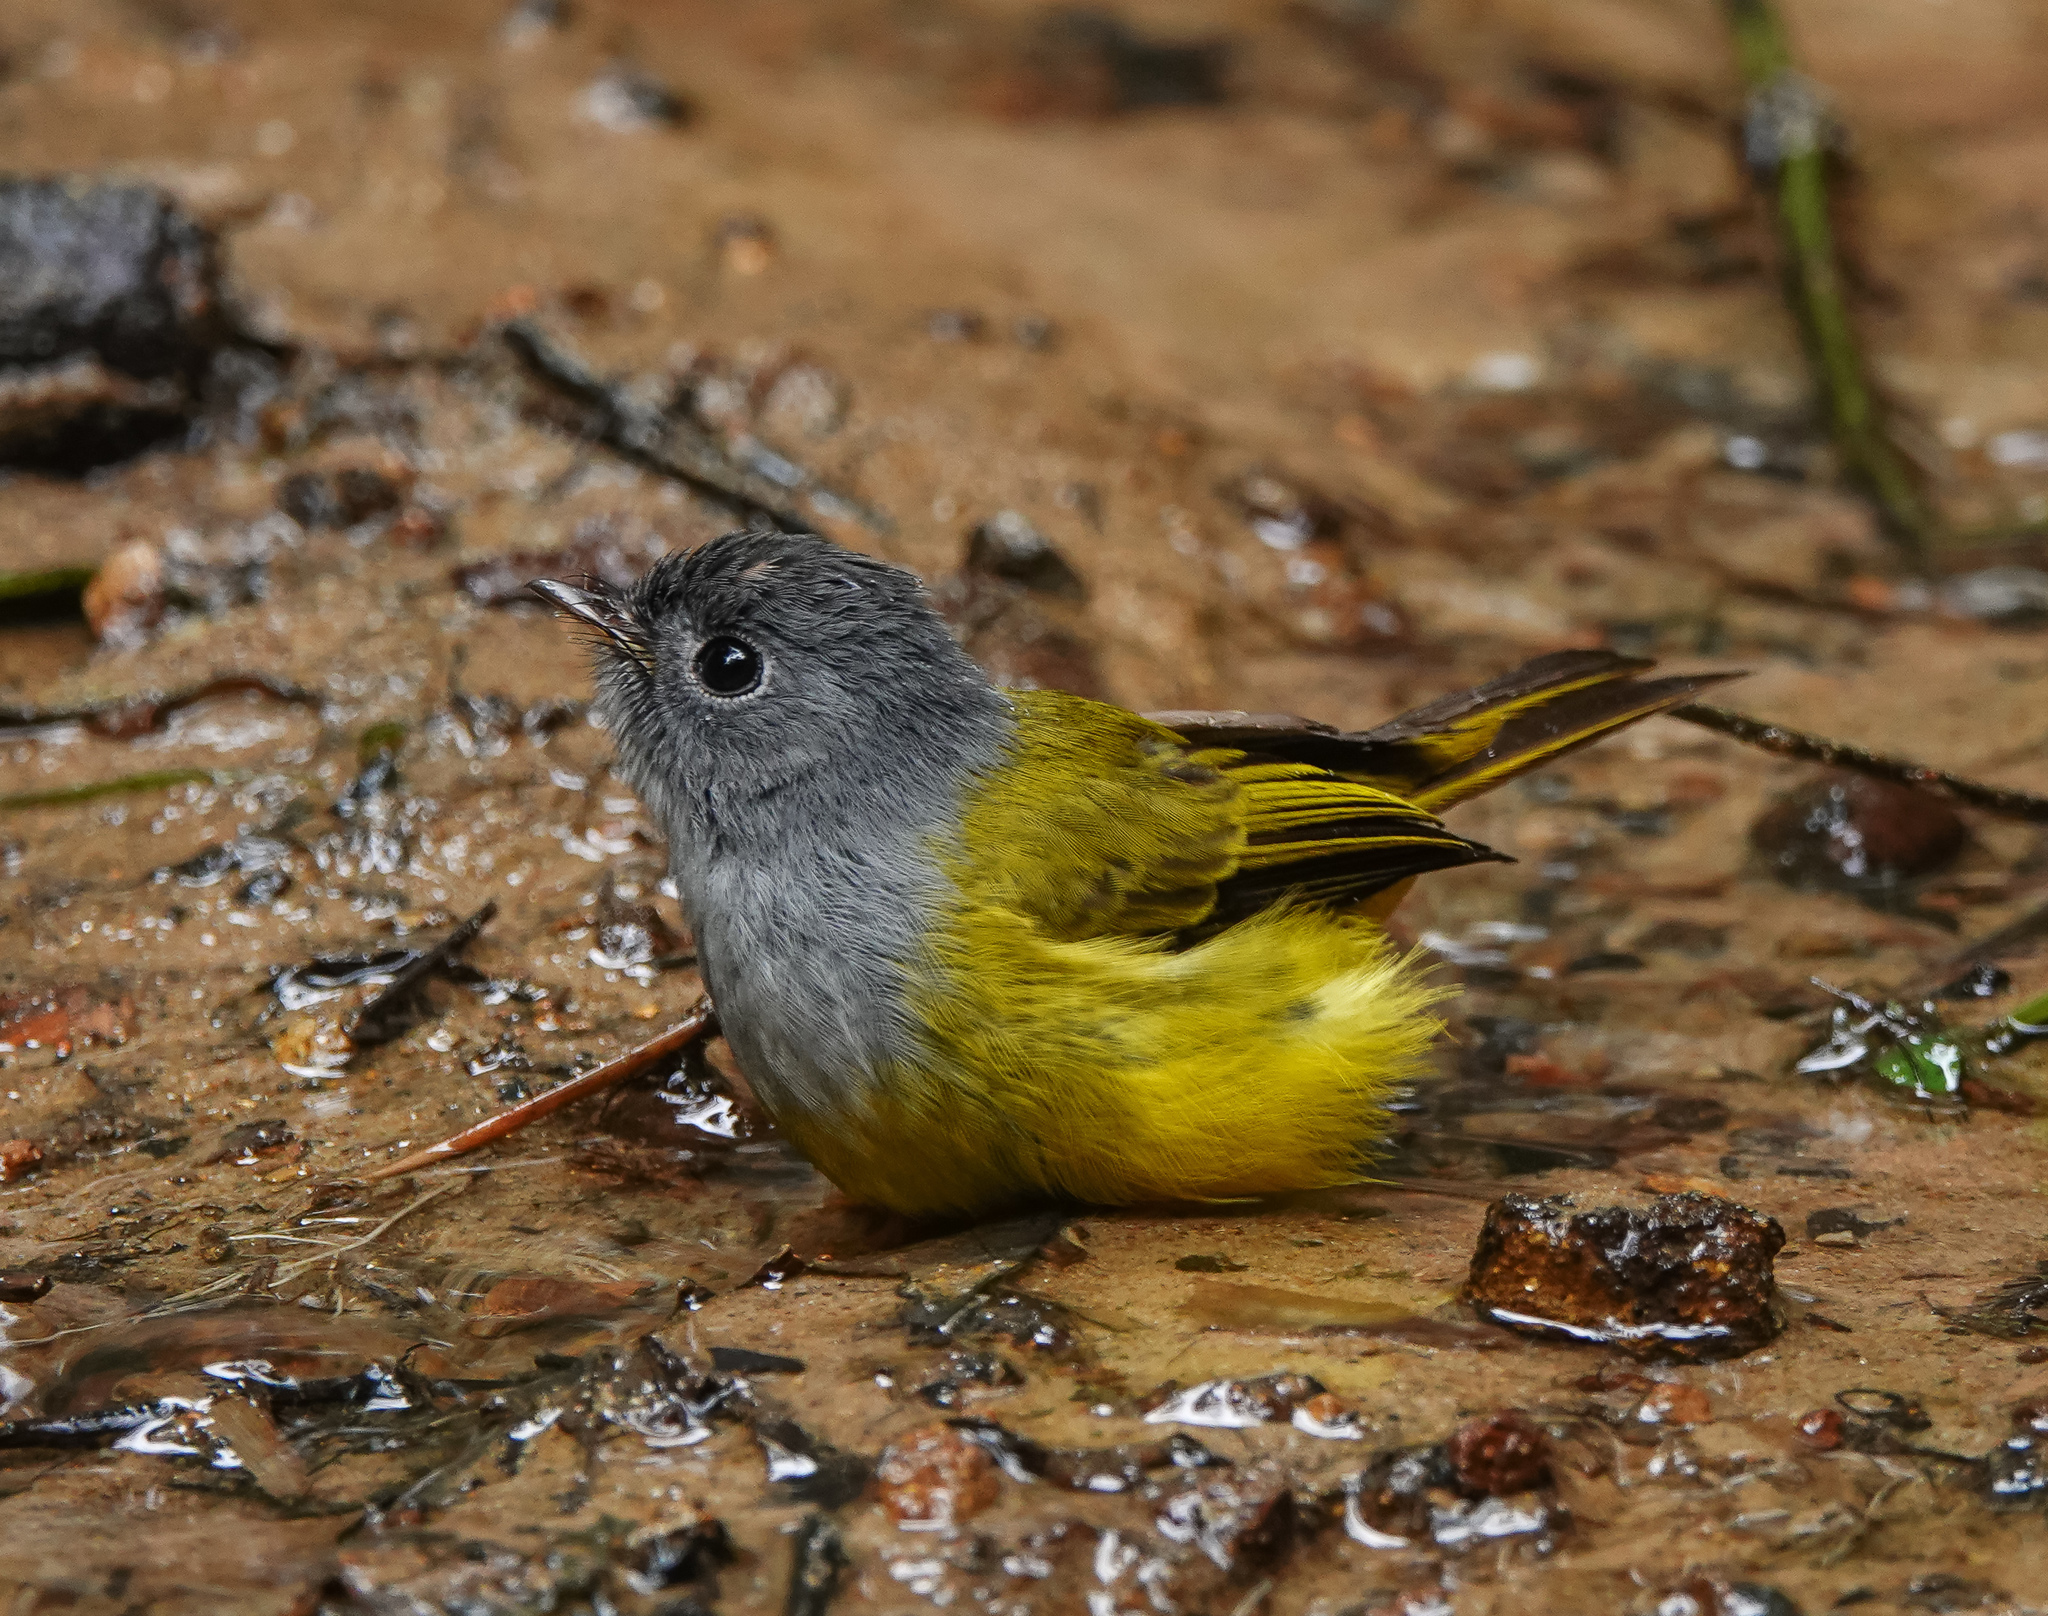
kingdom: Animalia
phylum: Chordata
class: Aves
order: Passeriformes
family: Stenostiridae
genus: Culicicapa
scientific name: Culicicapa ceylonensis
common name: Grey-headed canary-flycatcher
